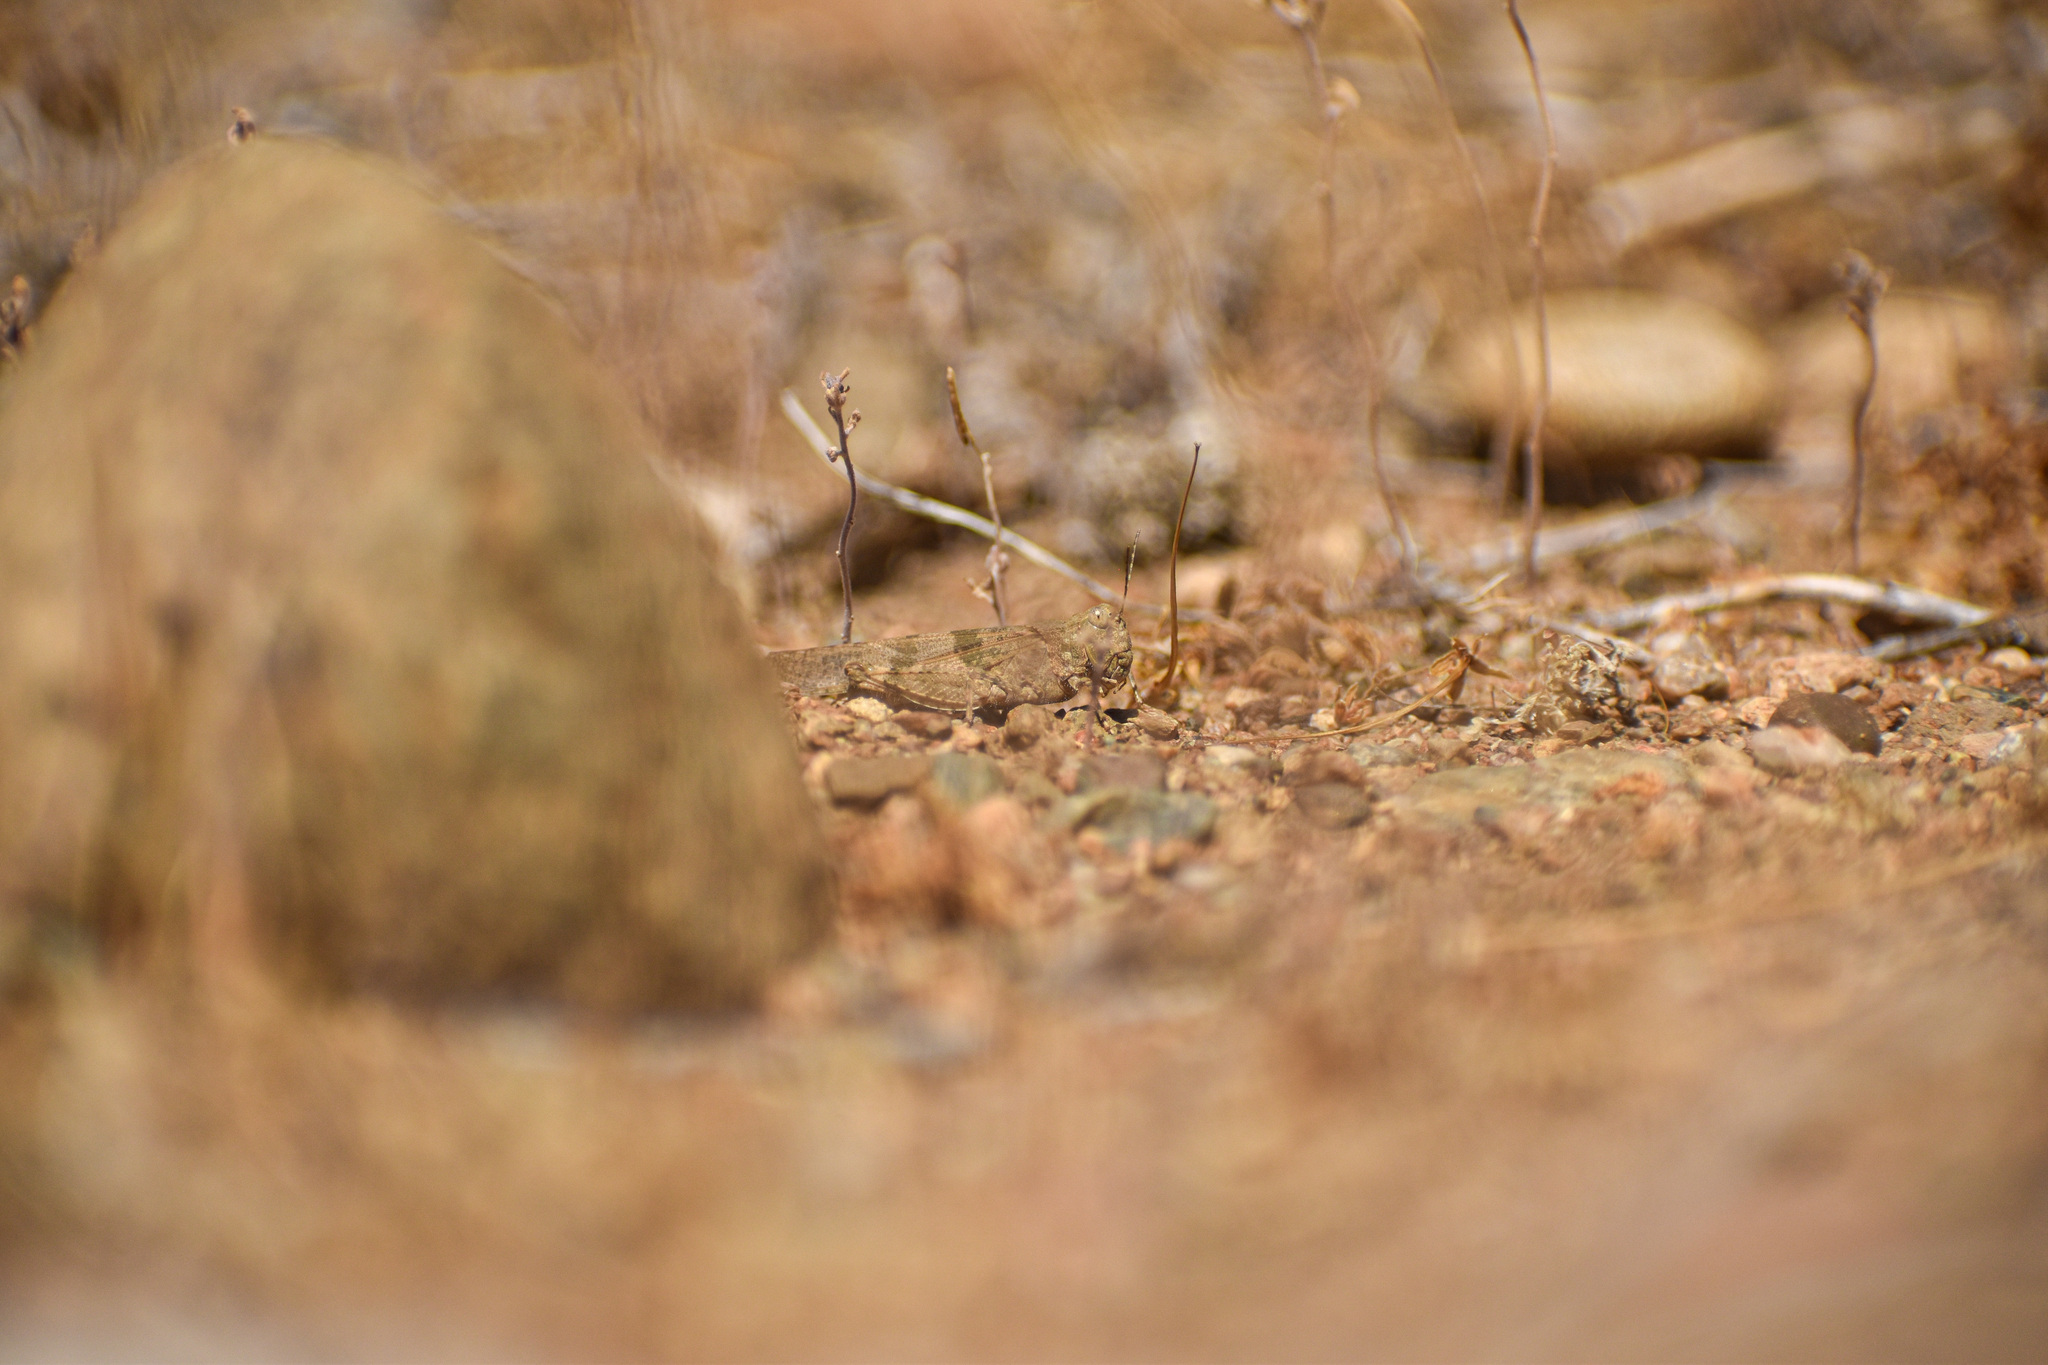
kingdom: Animalia
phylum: Arthropoda
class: Insecta
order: Orthoptera
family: Acrididae
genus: Trimerotropis
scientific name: Trimerotropis pallidipennis
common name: Pallid-winged grasshopper
